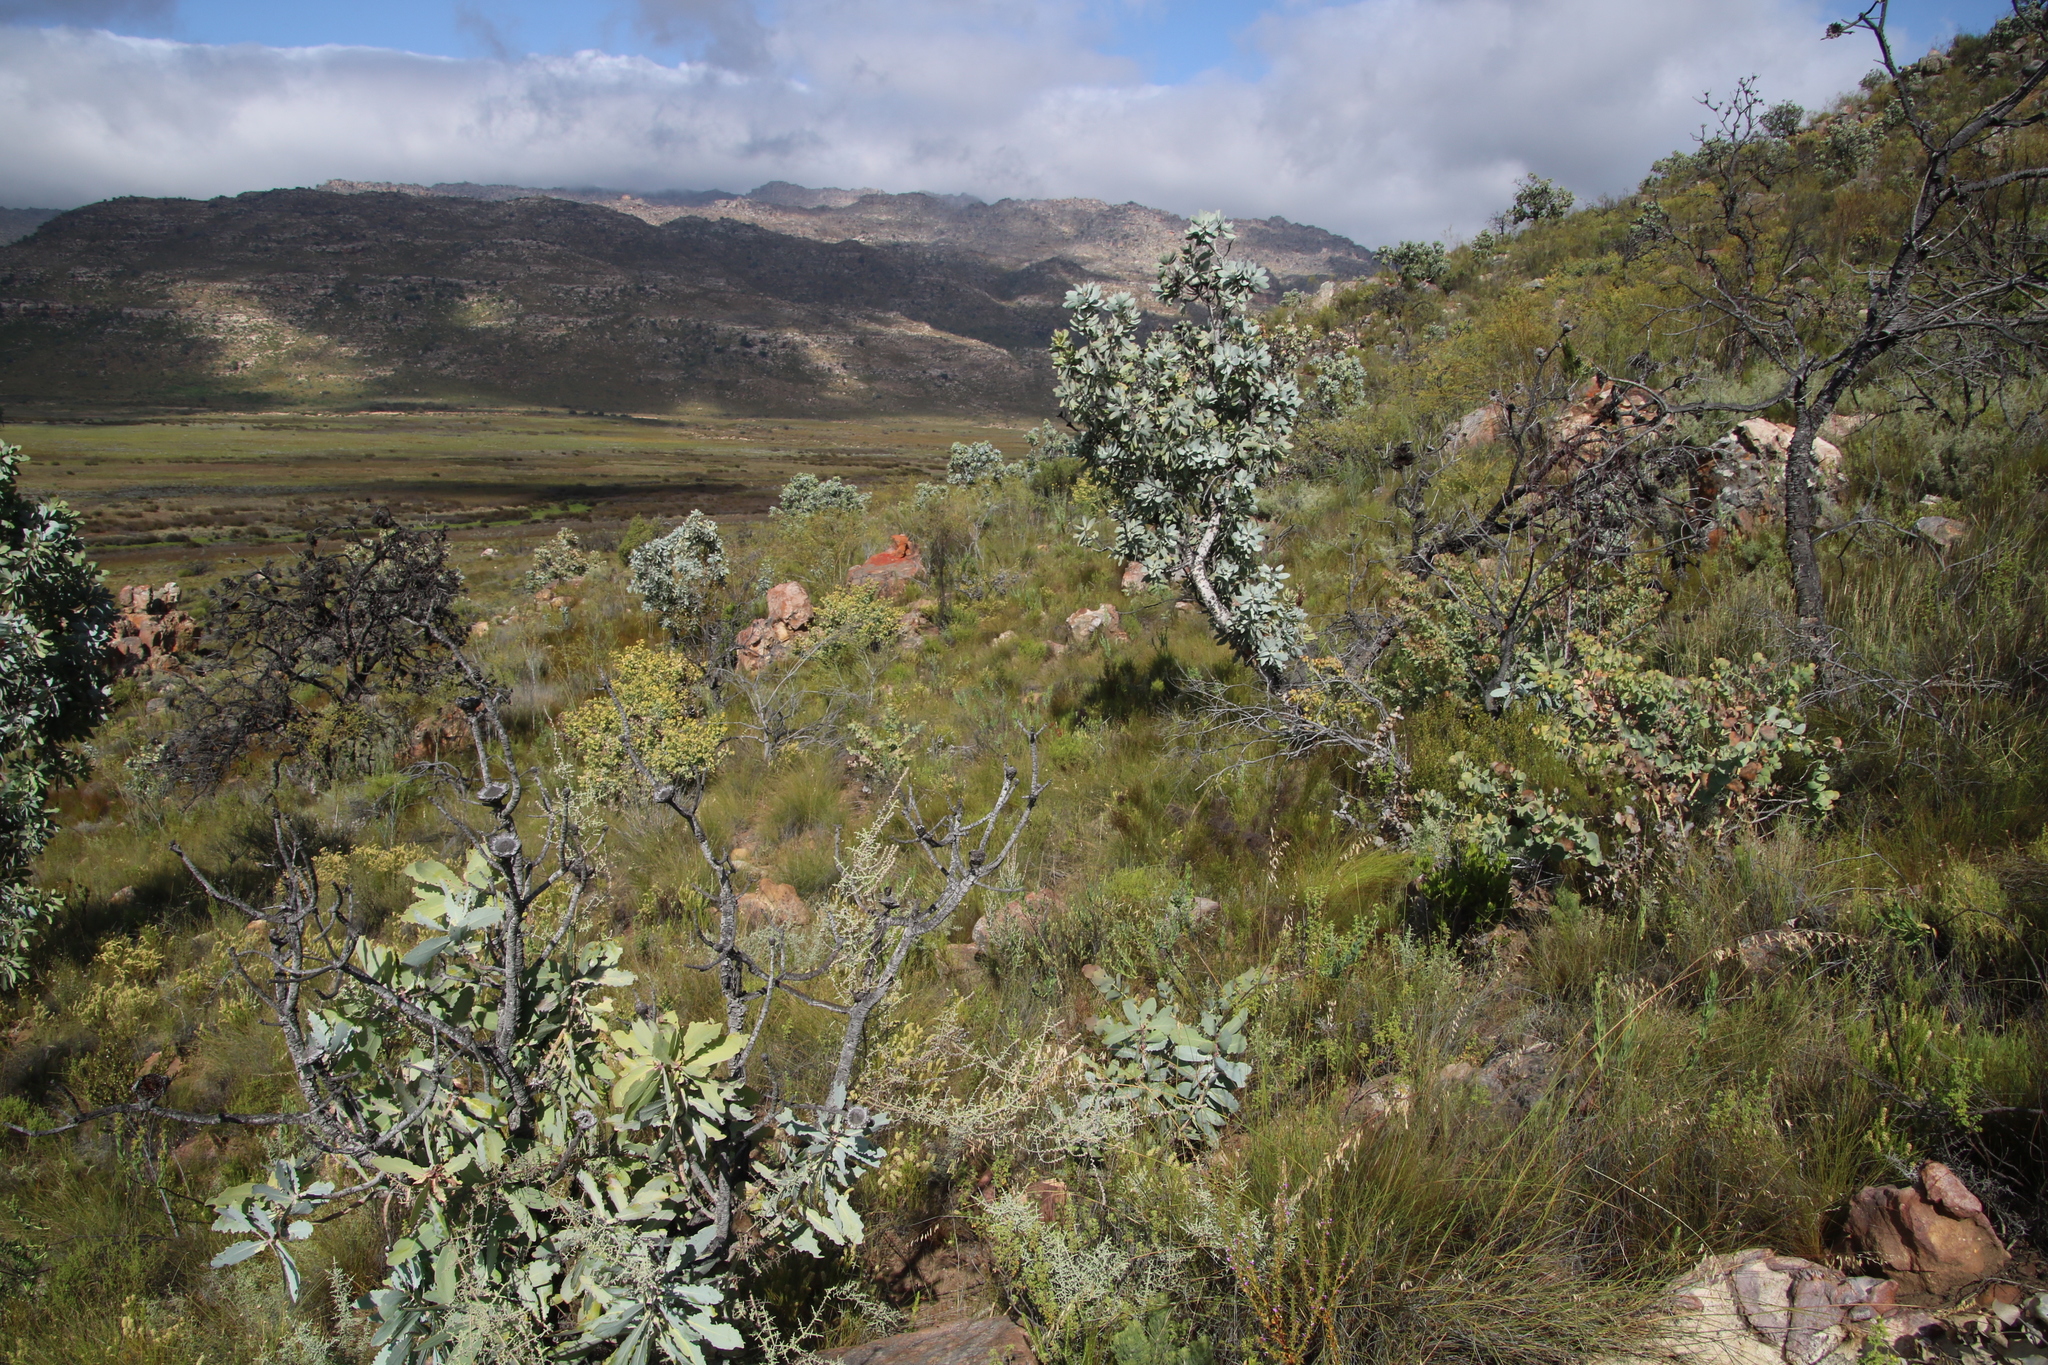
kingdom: Plantae
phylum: Tracheophyta
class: Magnoliopsida
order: Proteales
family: Proteaceae
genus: Protea
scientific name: Protea nitida
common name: Tree protea
